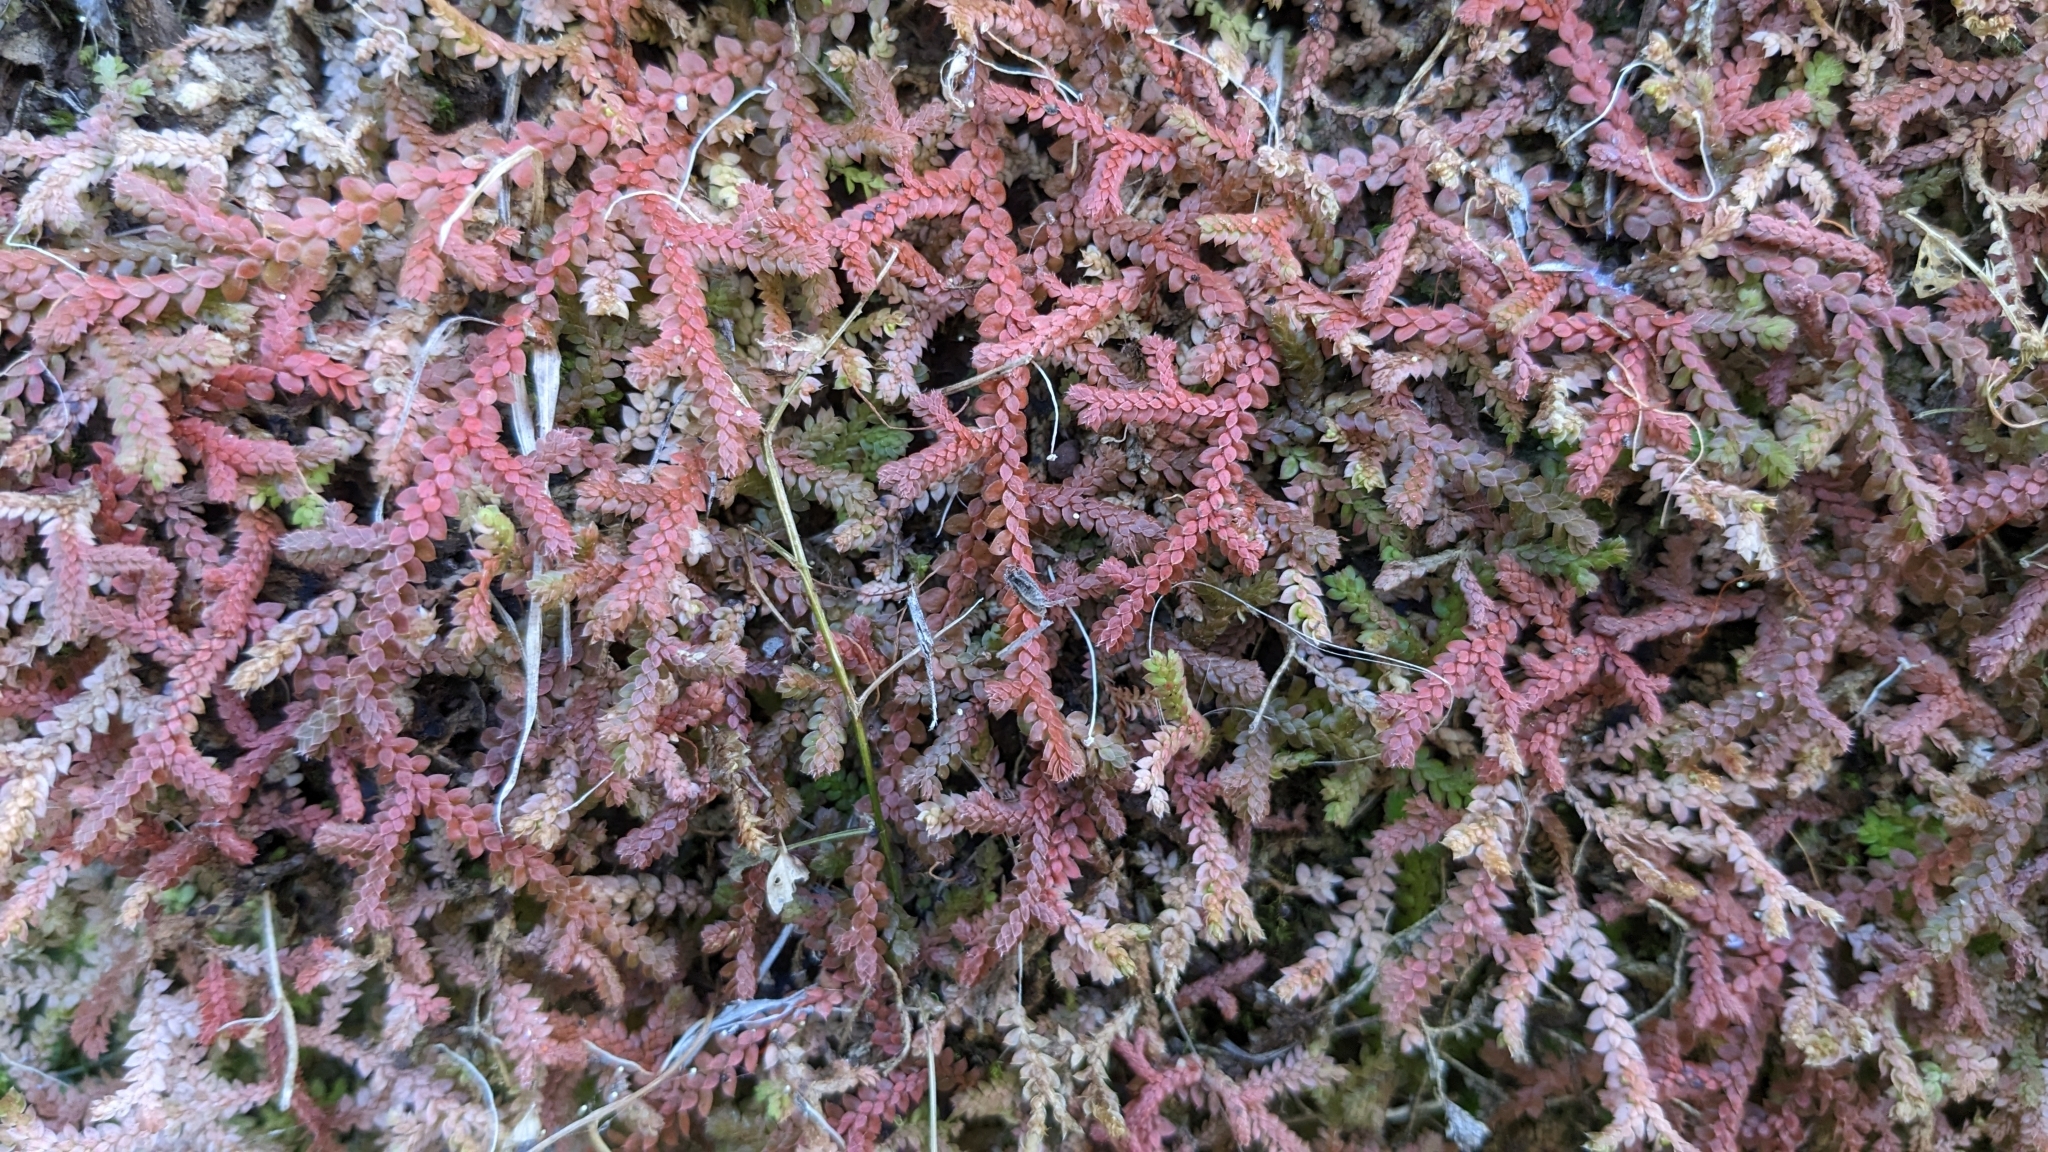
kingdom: Plantae
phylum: Tracheophyta
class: Lycopodiopsida
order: Selaginellales
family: Selaginellaceae
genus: Selaginella
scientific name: Selaginella denticulata
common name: Toothed-leaved clubmoss
